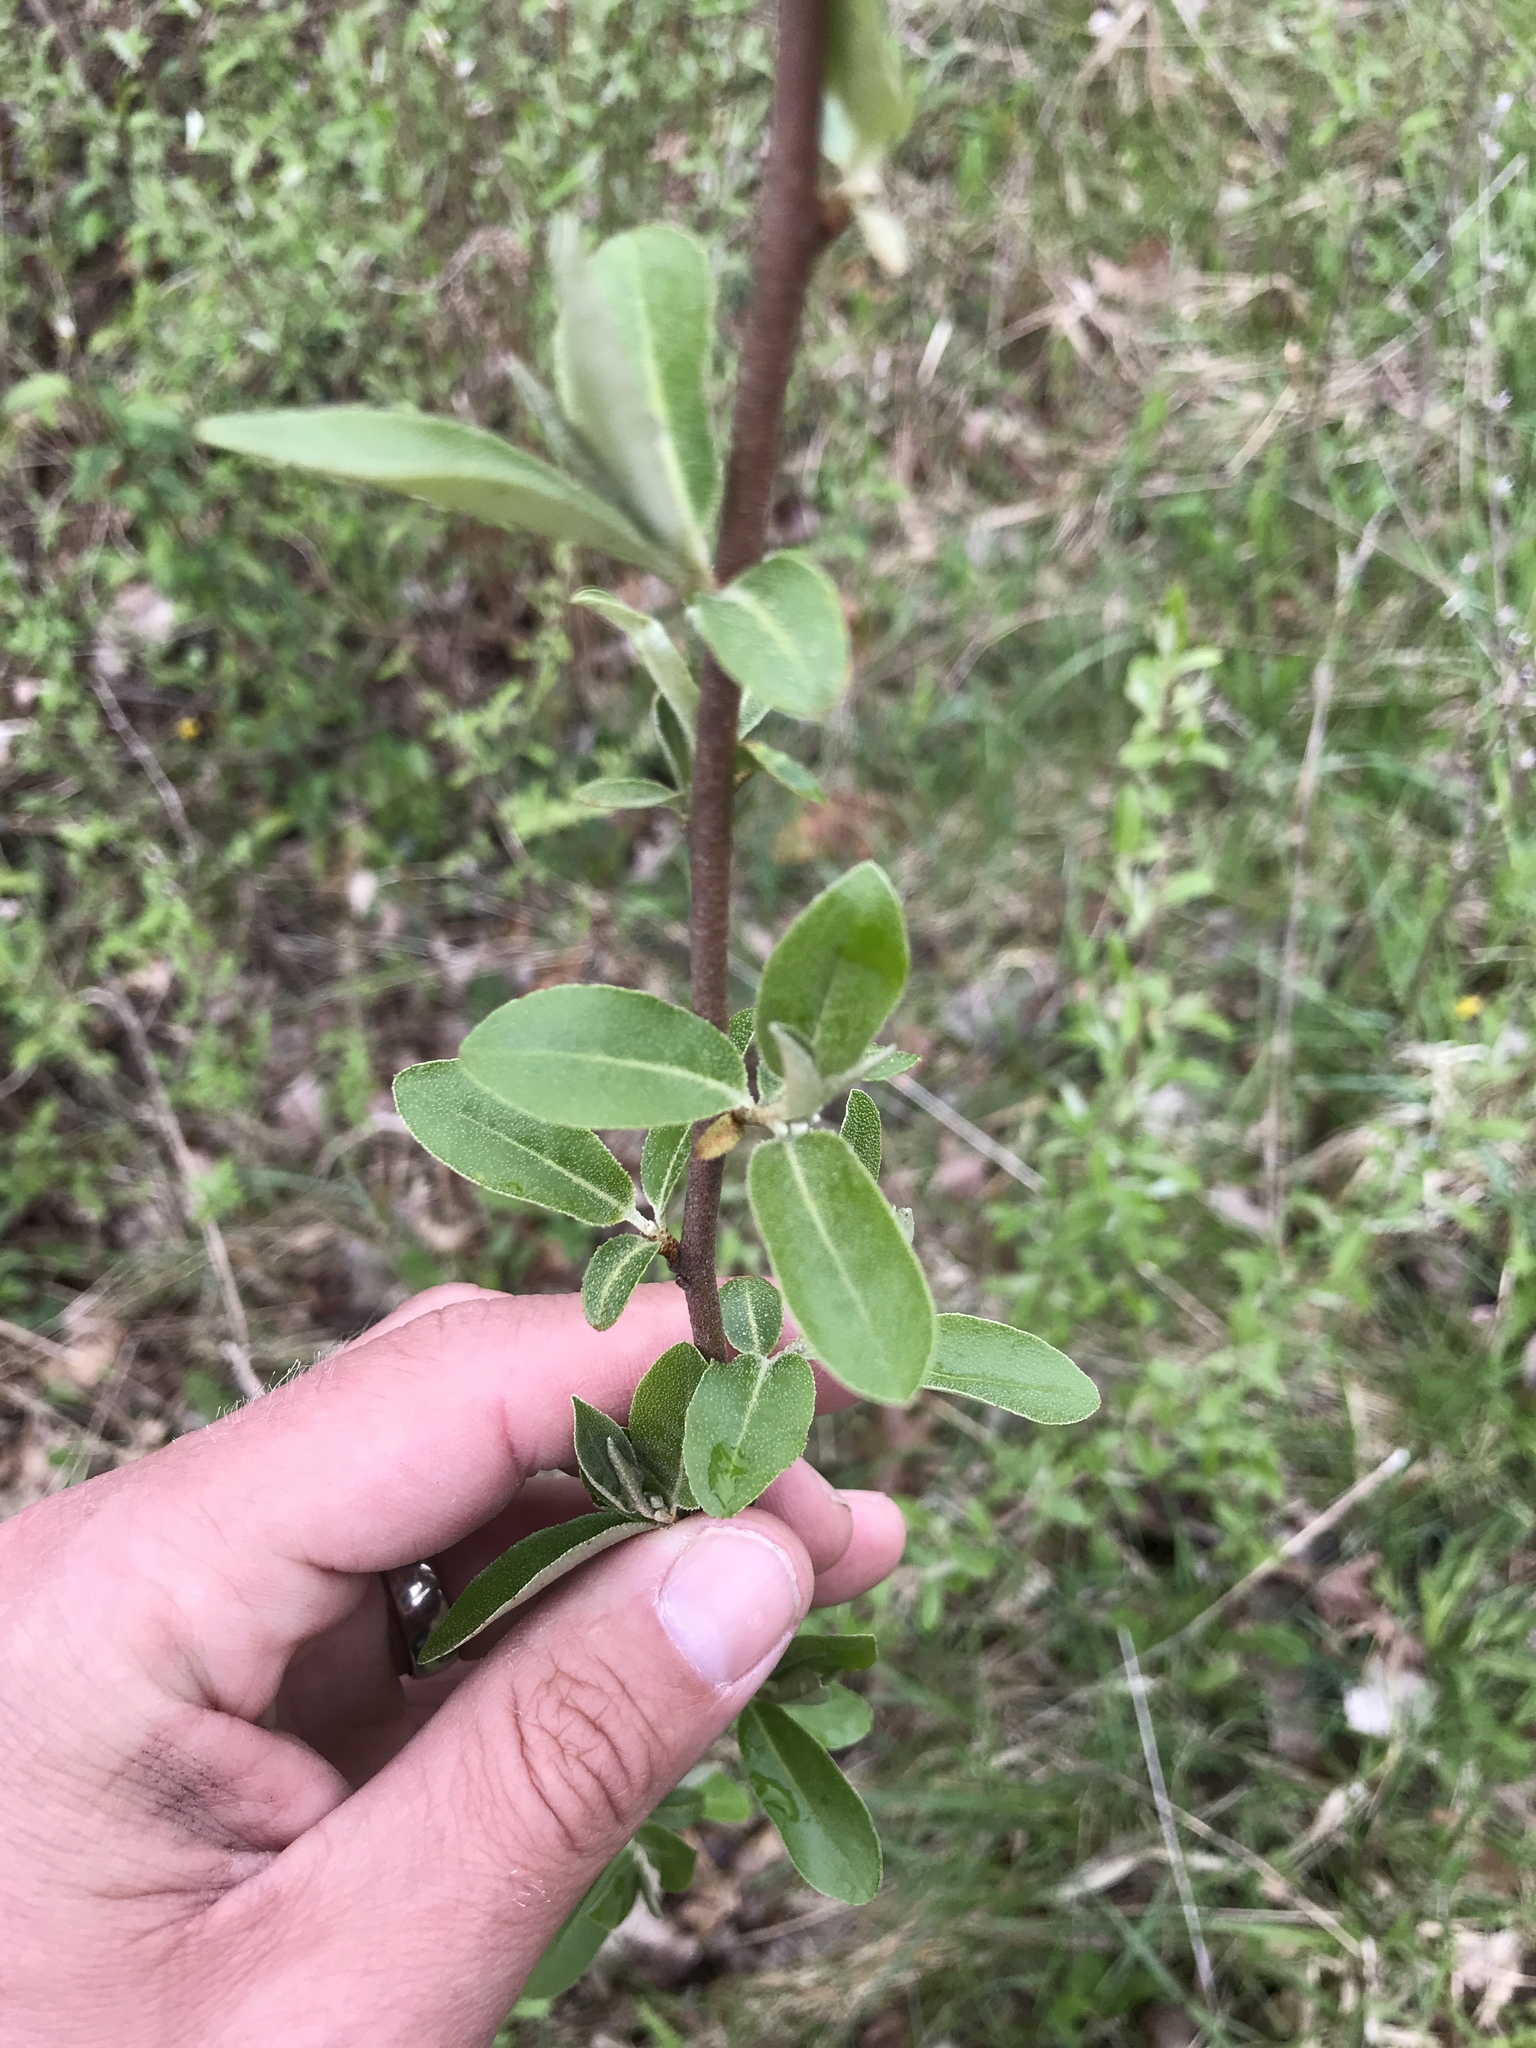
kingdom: Plantae
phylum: Tracheophyta
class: Magnoliopsida
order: Rosales
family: Elaeagnaceae
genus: Elaeagnus
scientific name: Elaeagnus umbellata
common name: Autumn olive
